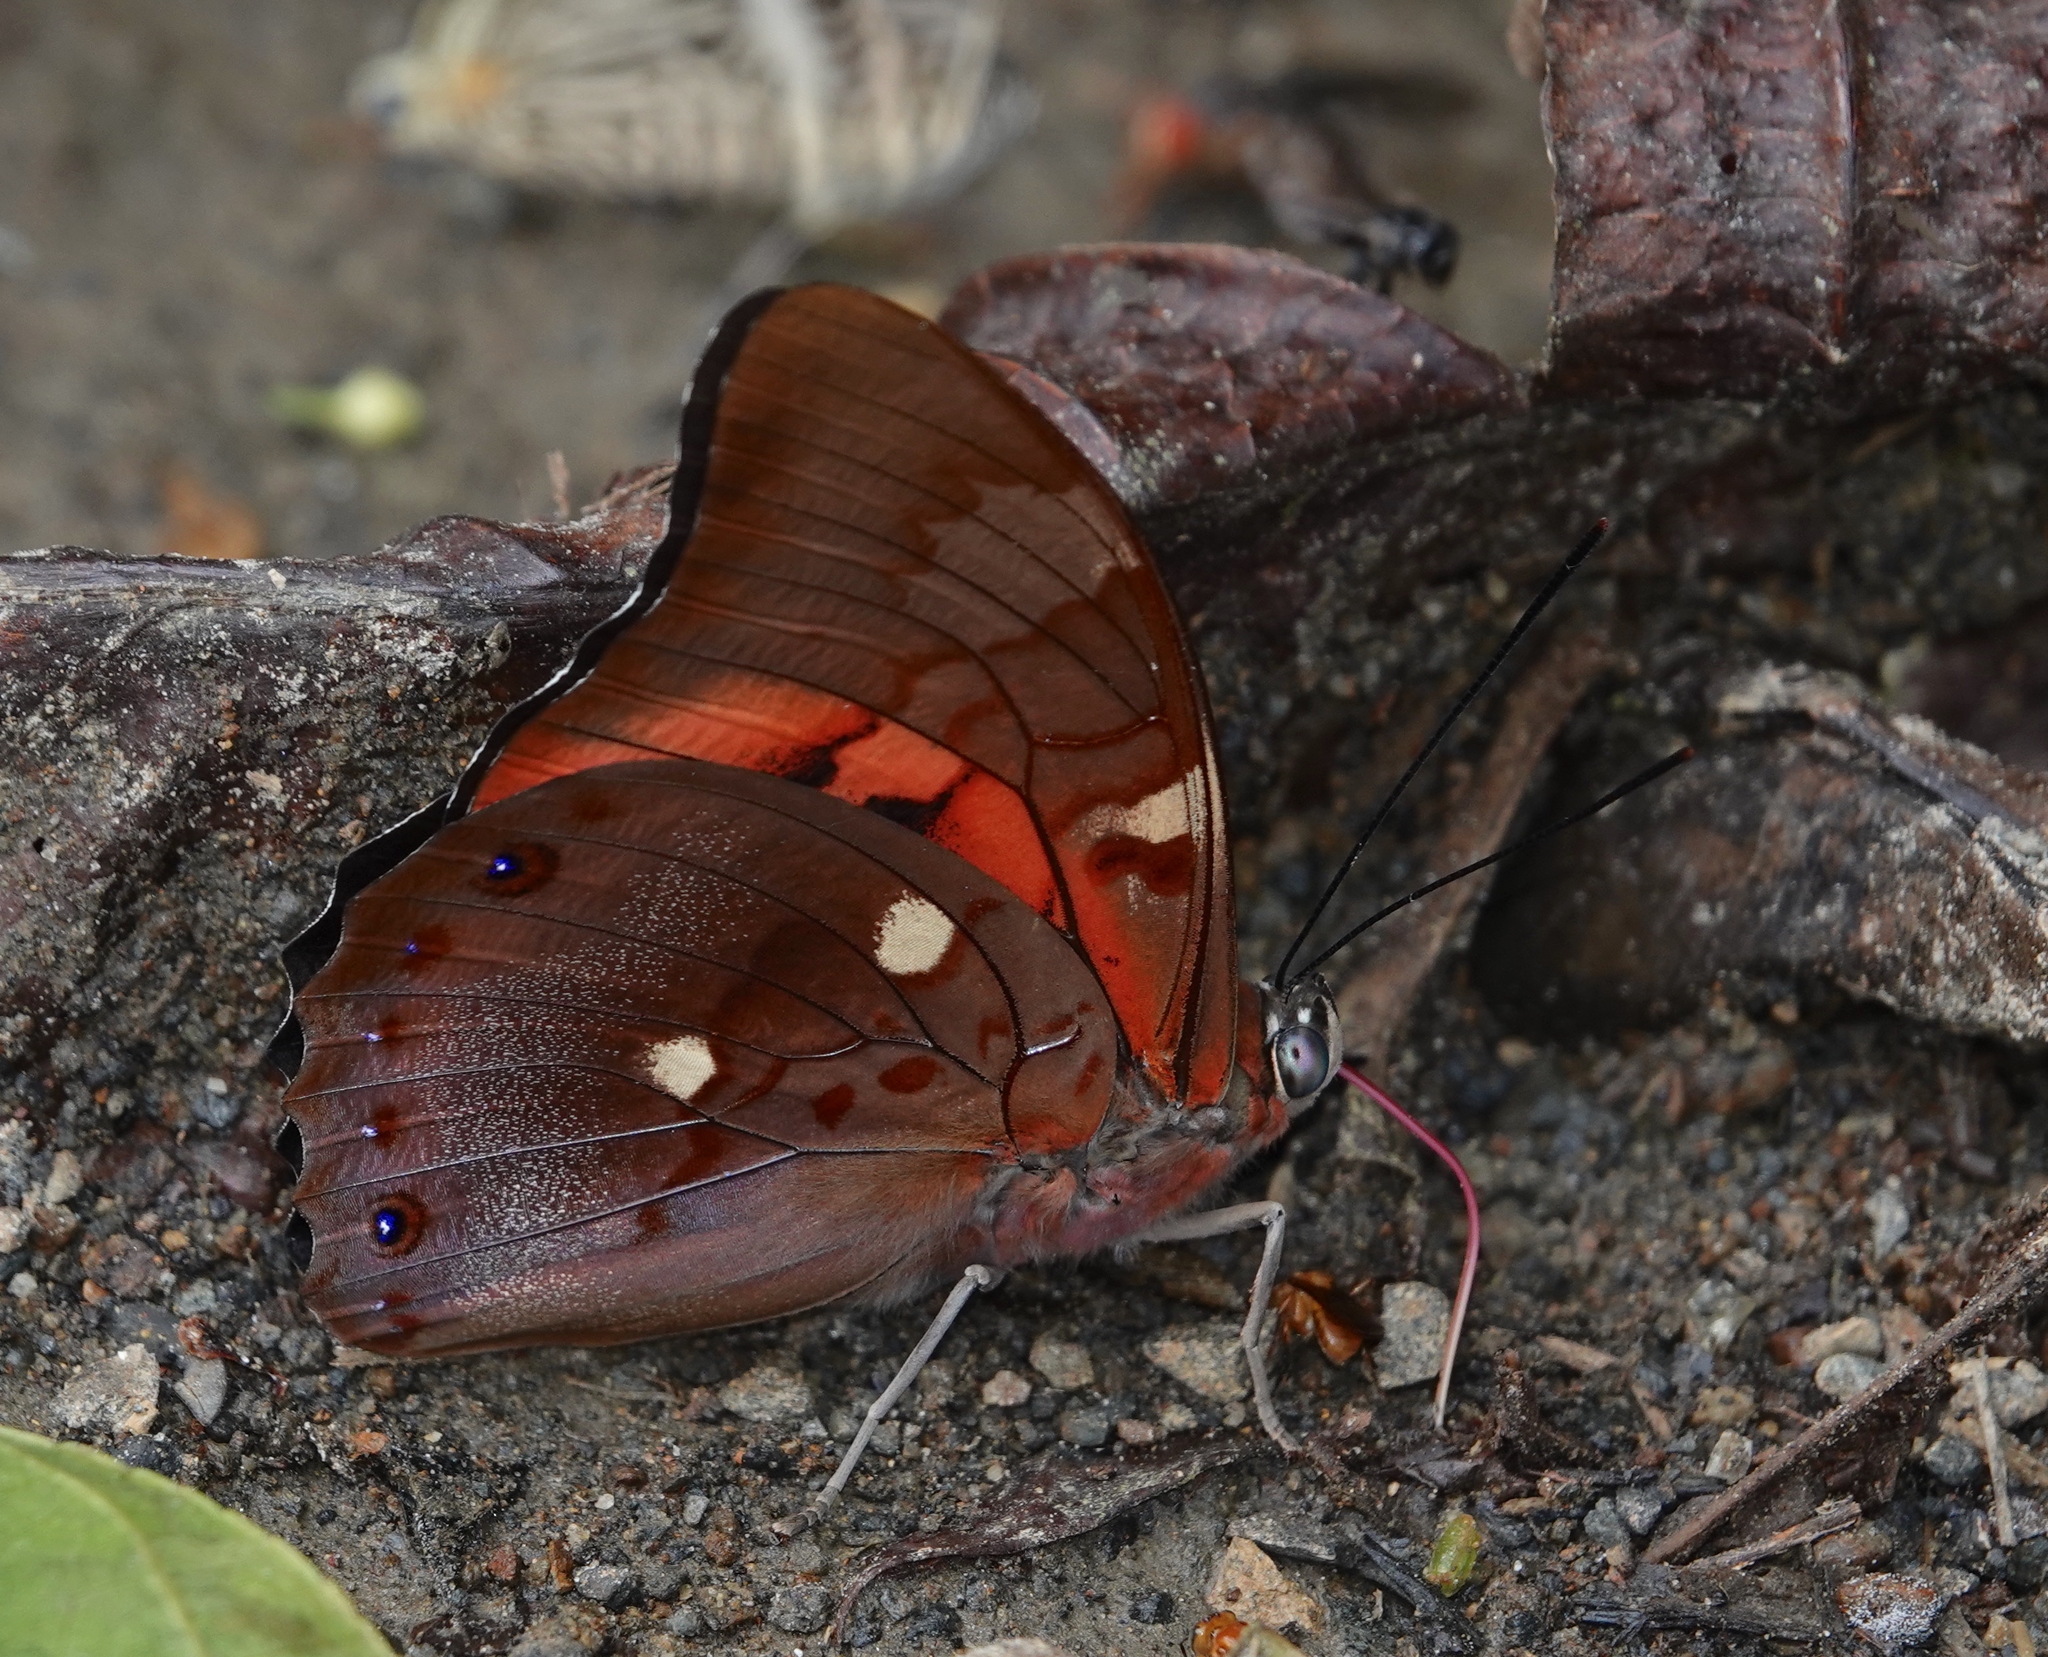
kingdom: Animalia
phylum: Arthropoda
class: Insecta
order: Lepidoptera
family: Nymphalidae
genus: Prepona
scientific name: Prepona praeneste
